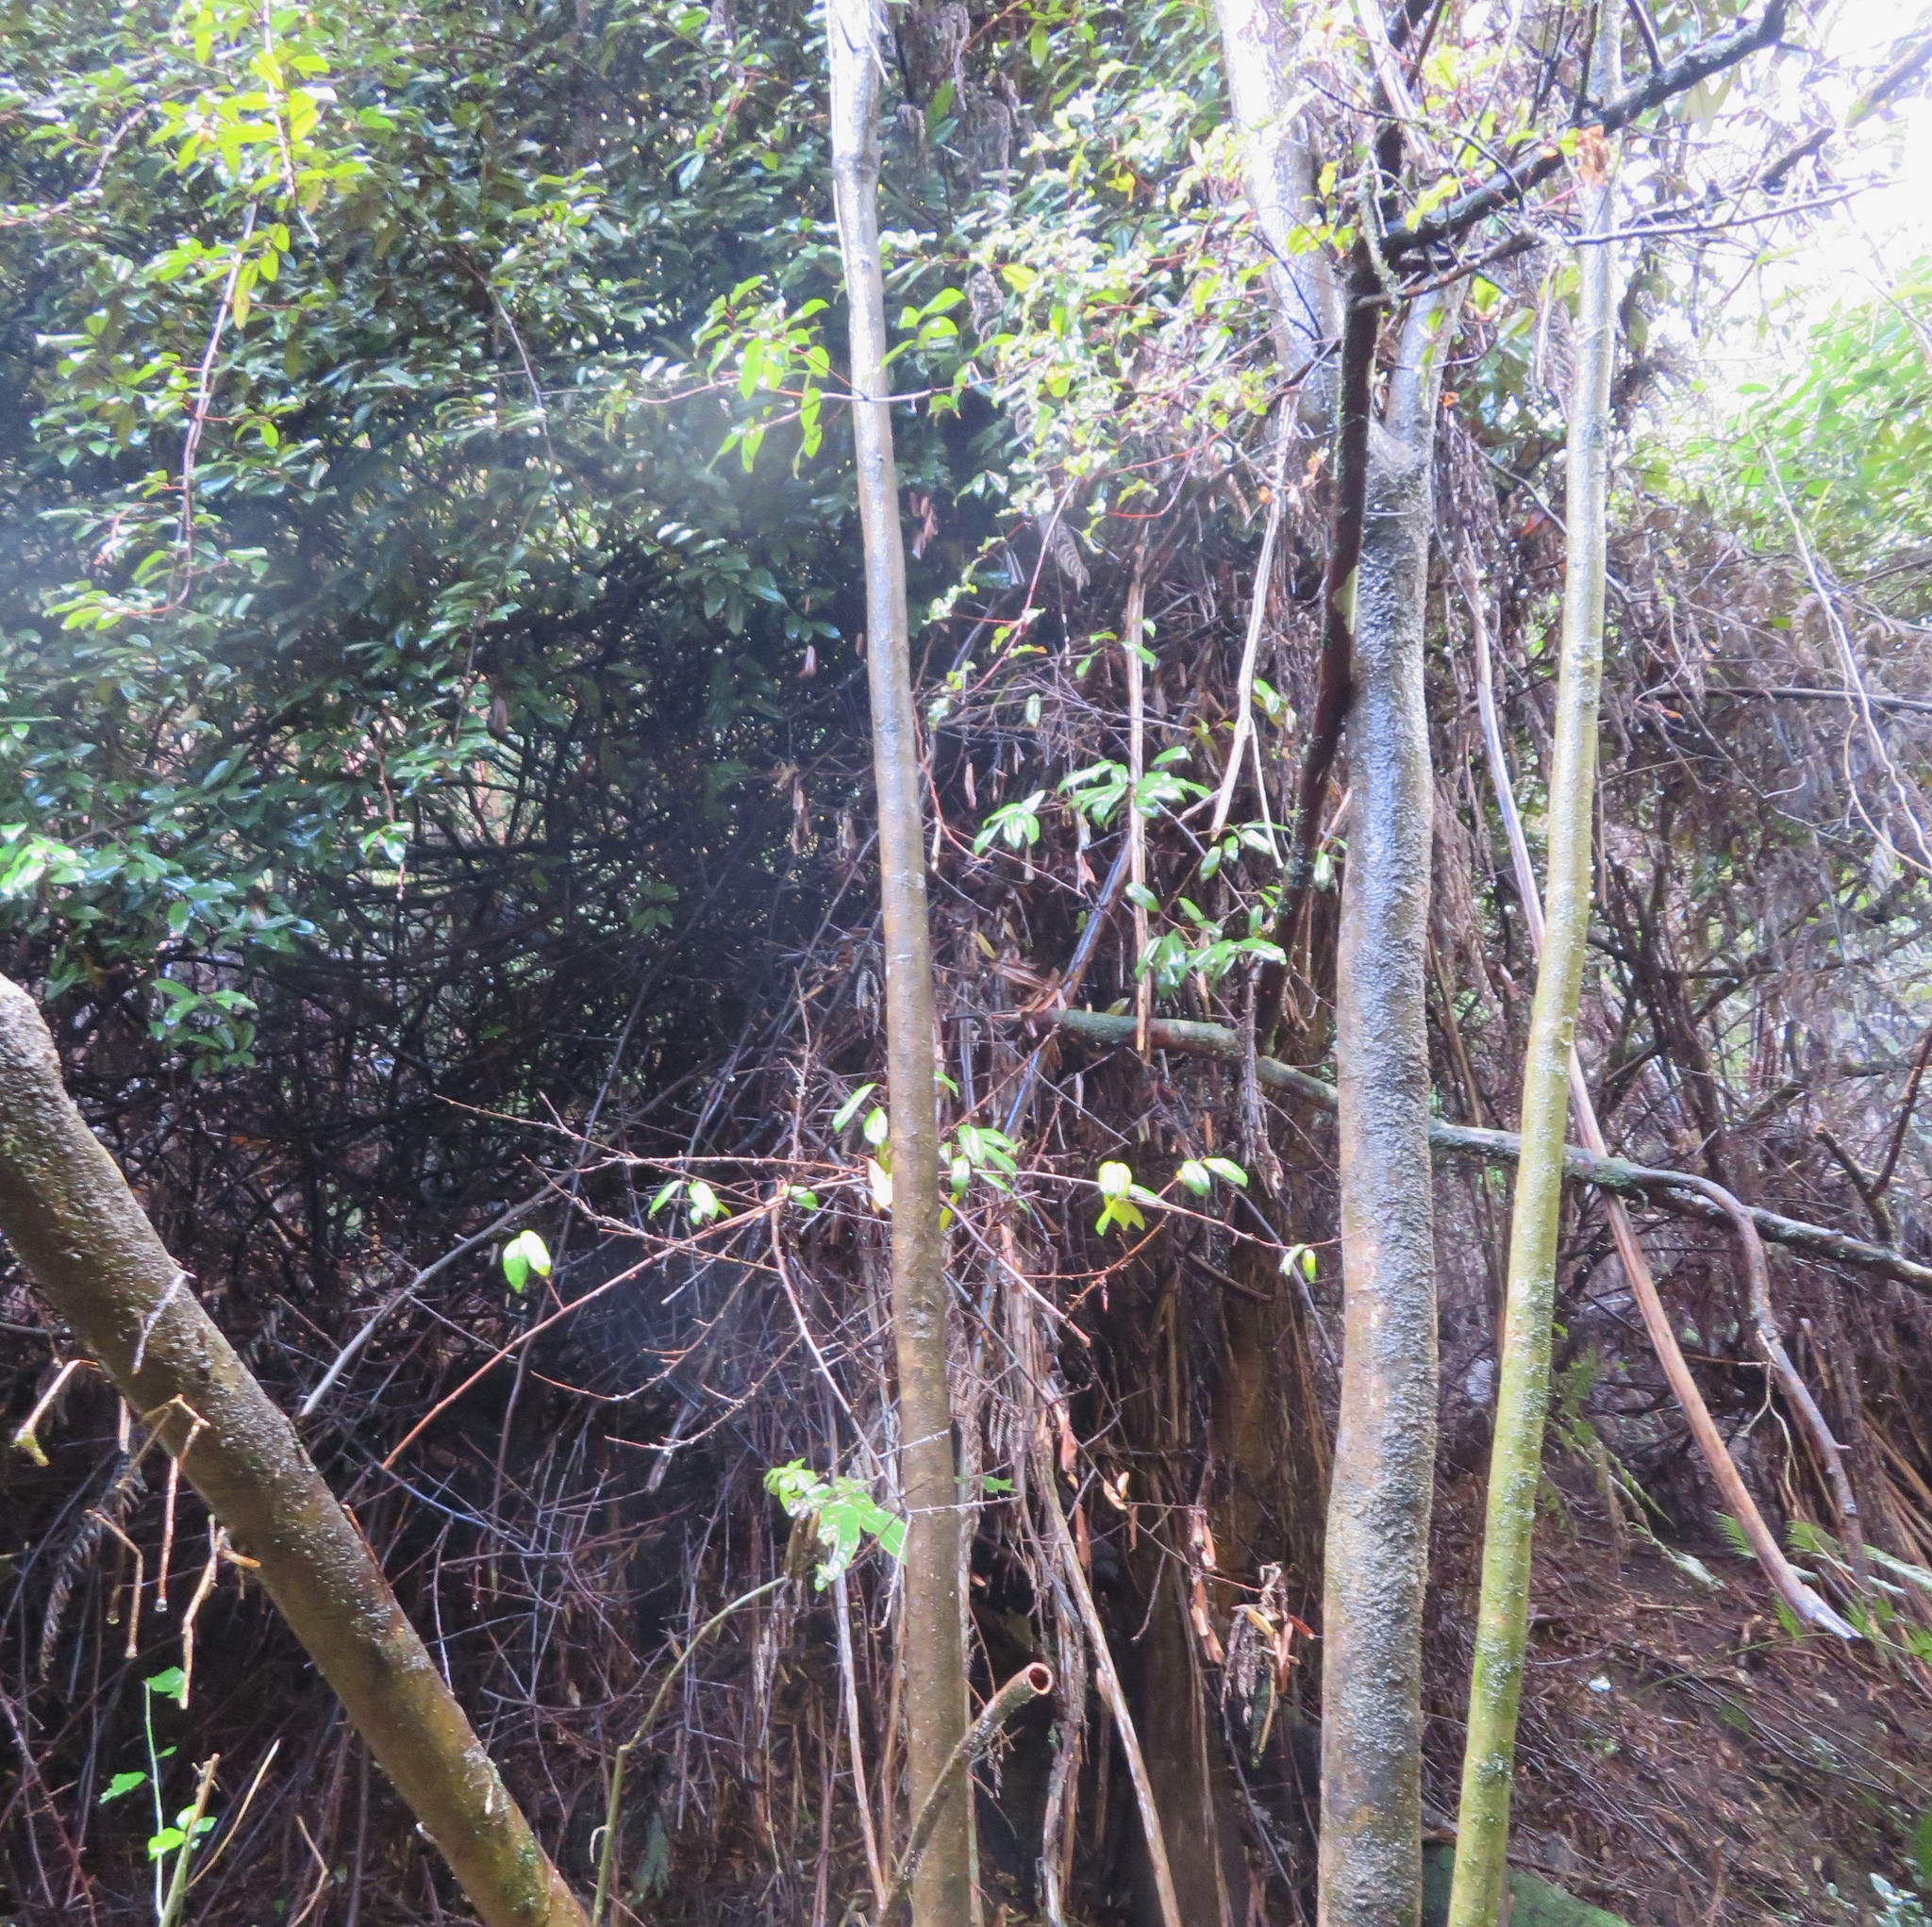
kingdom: Plantae
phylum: Tracheophyta
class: Magnoliopsida
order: Rosales
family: Elaeagnaceae
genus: Elaeagnus
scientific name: Elaeagnus reflexa
